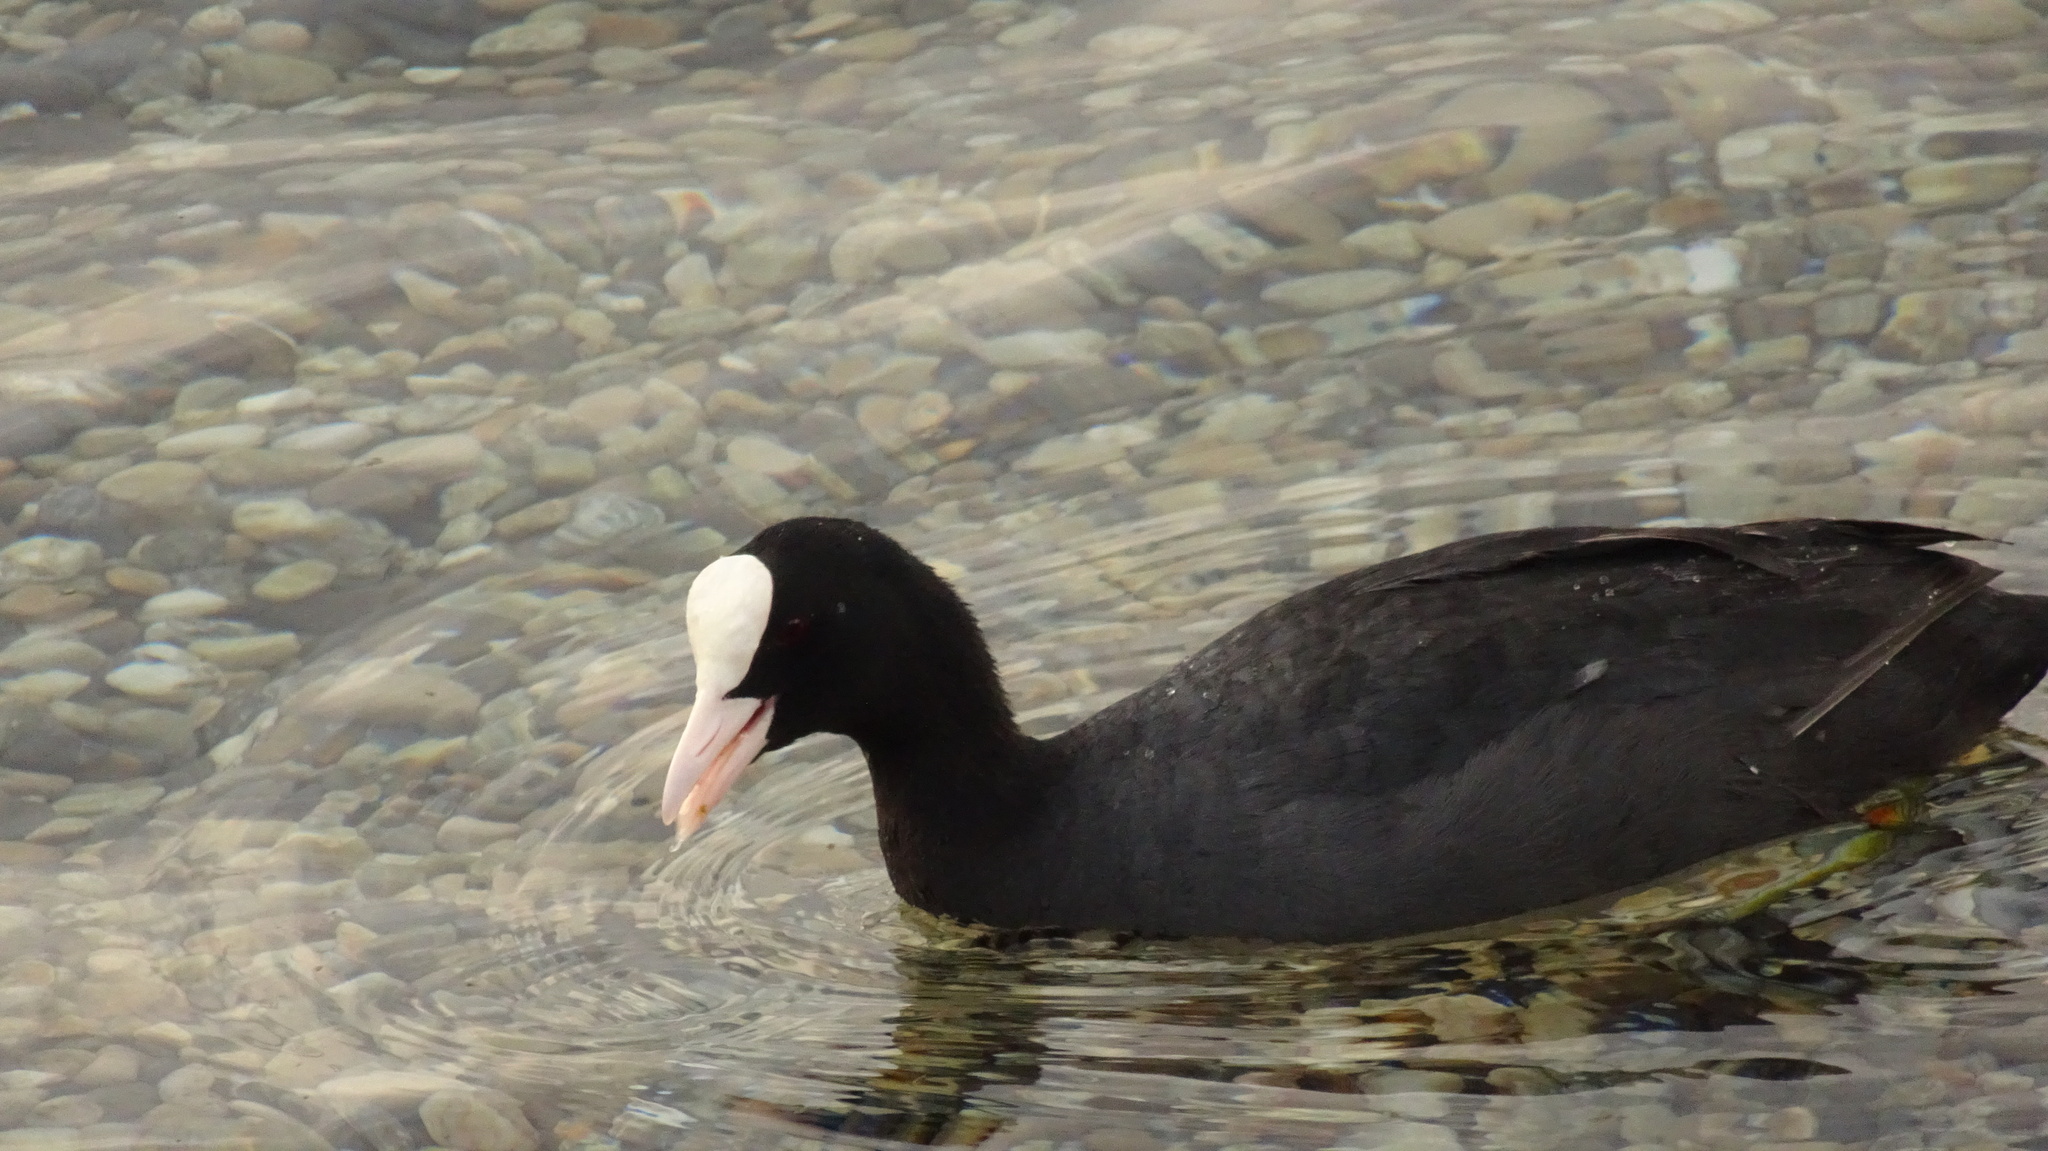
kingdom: Animalia
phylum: Chordata
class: Aves
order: Gruiformes
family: Rallidae
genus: Fulica
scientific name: Fulica atra
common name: Eurasian coot
